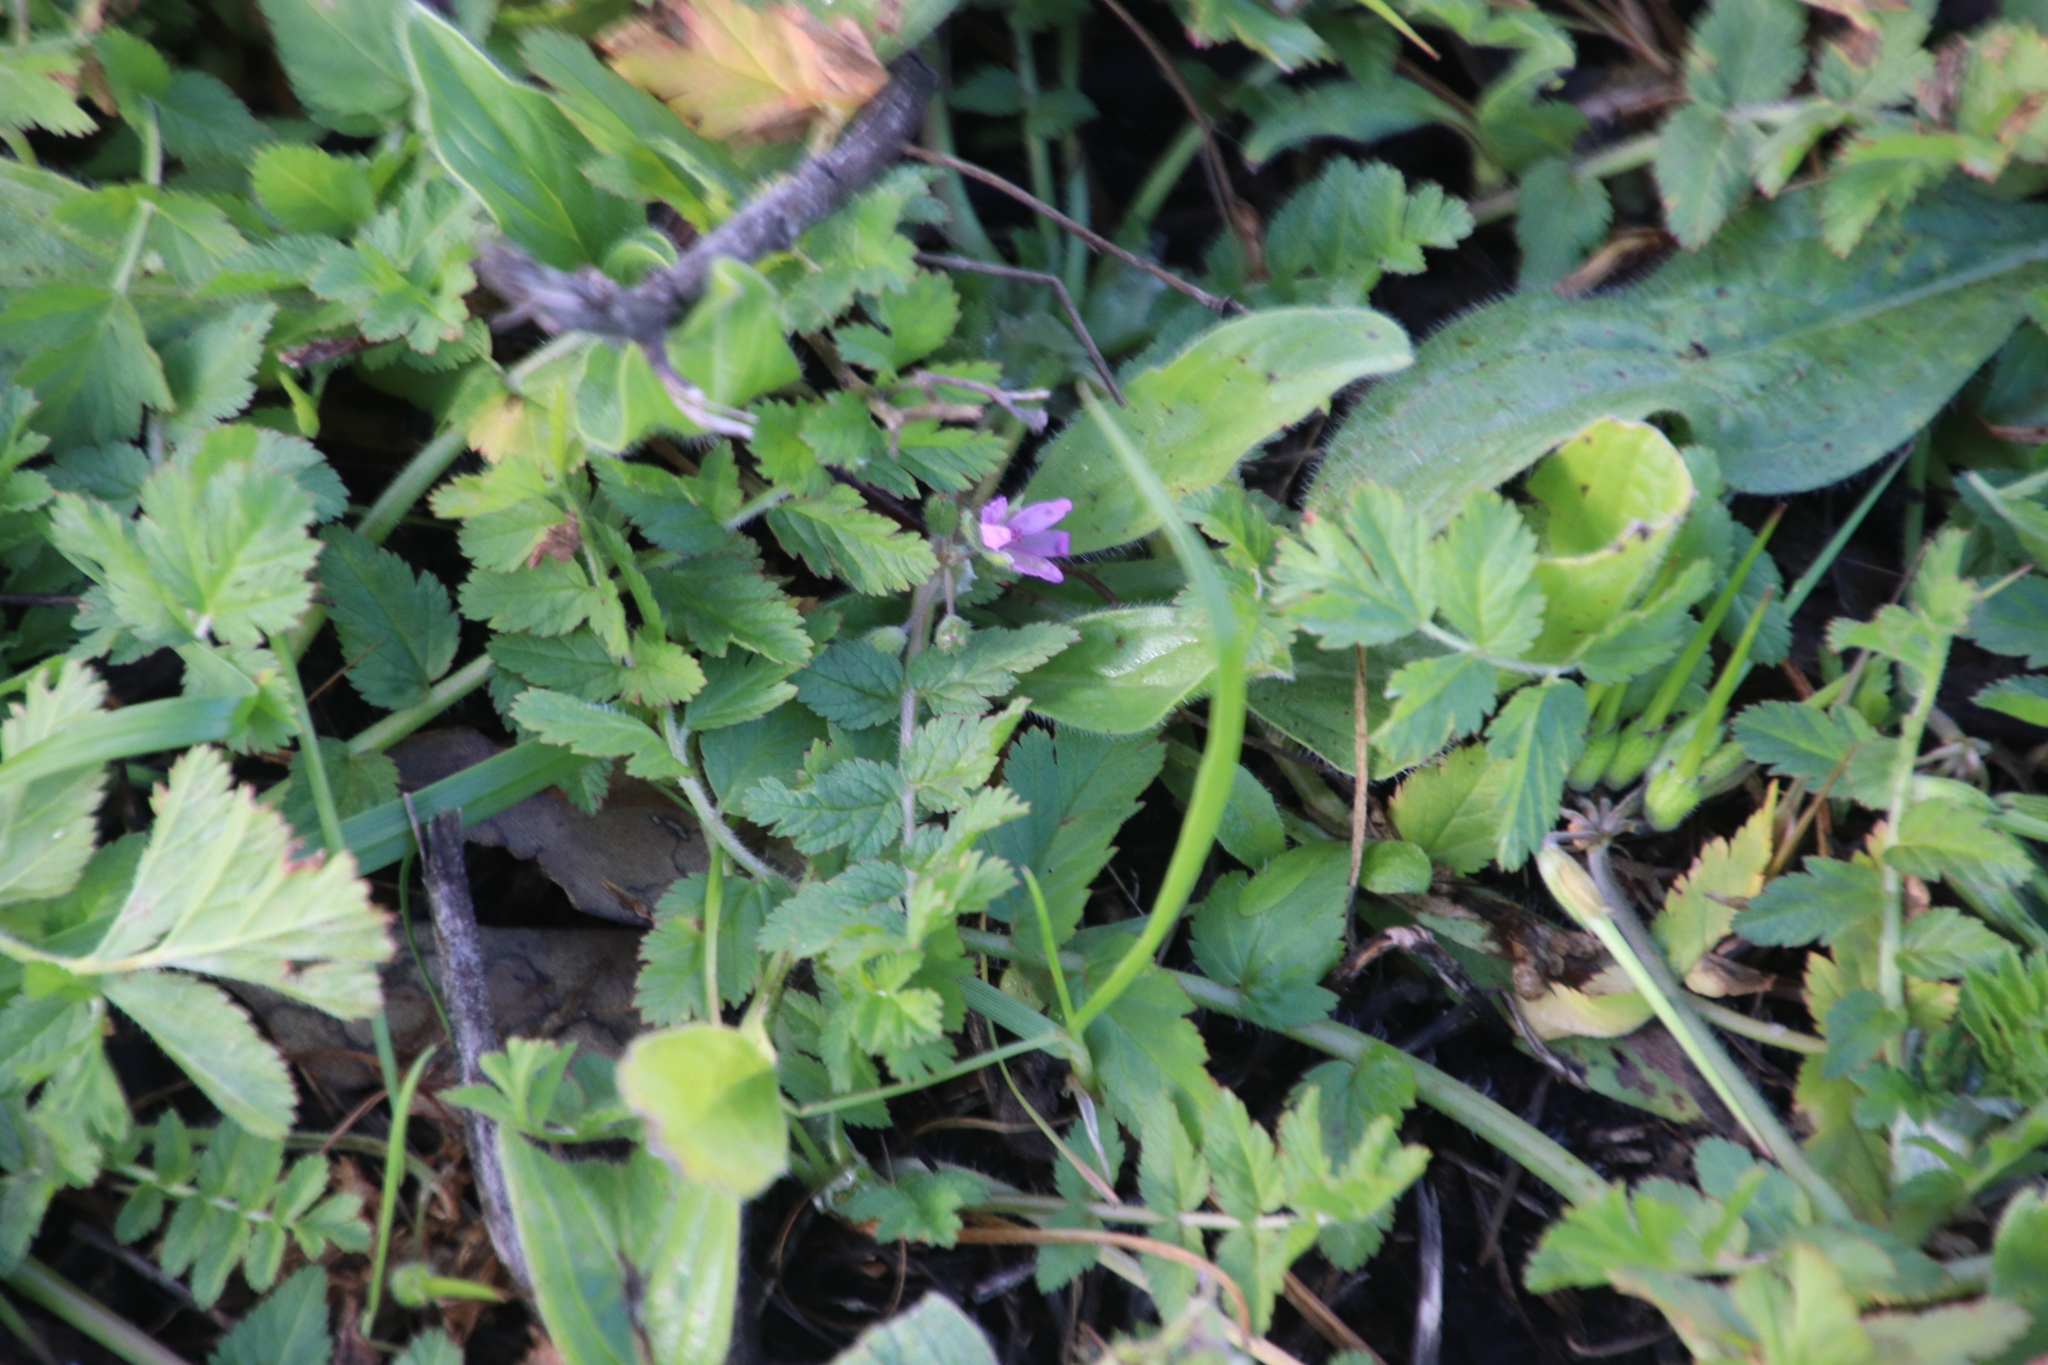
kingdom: Plantae
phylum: Tracheophyta
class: Magnoliopsida
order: Geraniales
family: Geraniaceae
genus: Erodium
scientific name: Erodium moschatum
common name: Musk stork's-bill
